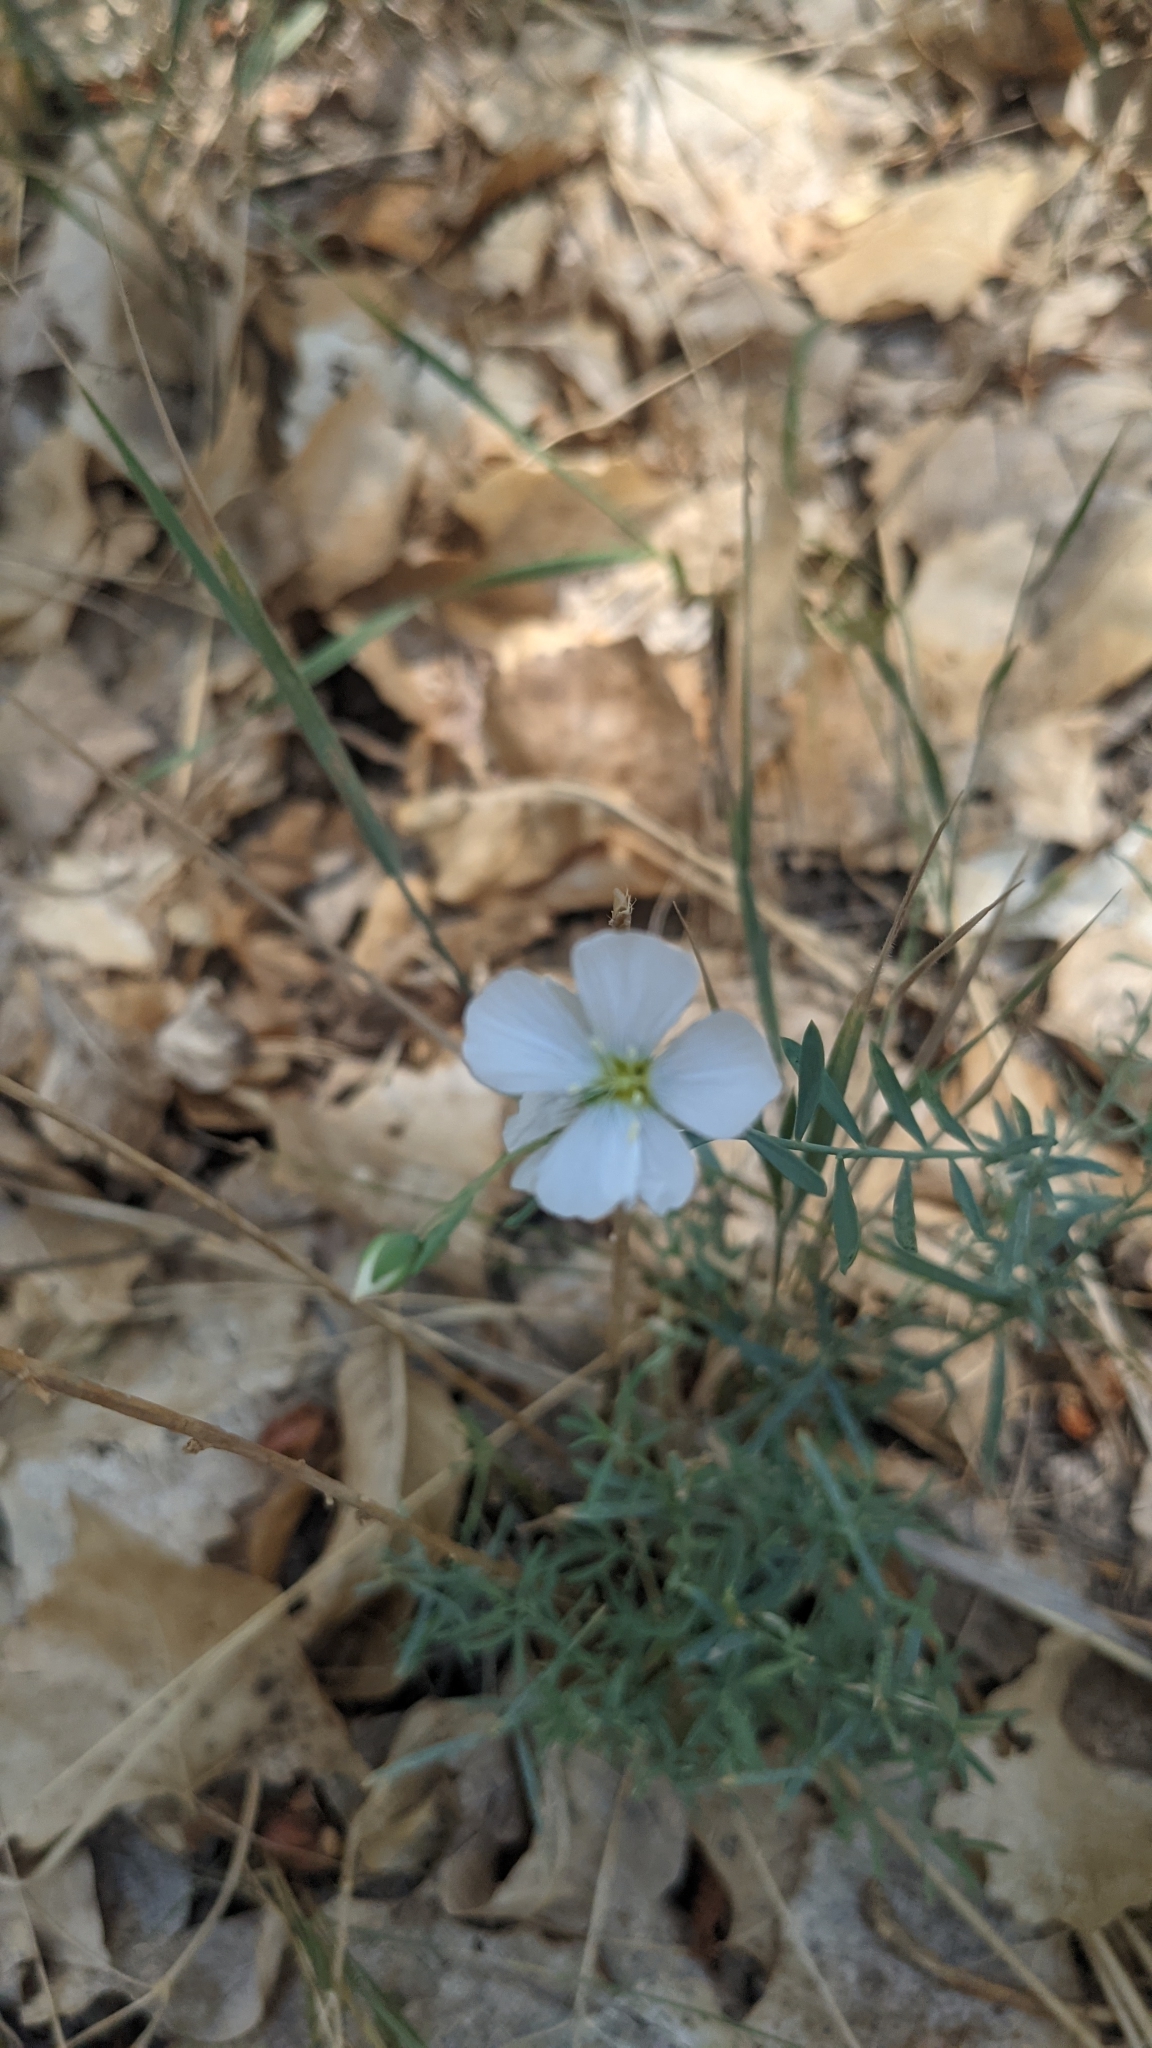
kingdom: Plantae
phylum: Tracheophyta
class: Magnoliopsida
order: Malpighiales
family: Linaceae
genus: Linum
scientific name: Linum lewisii
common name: Prairie flax
